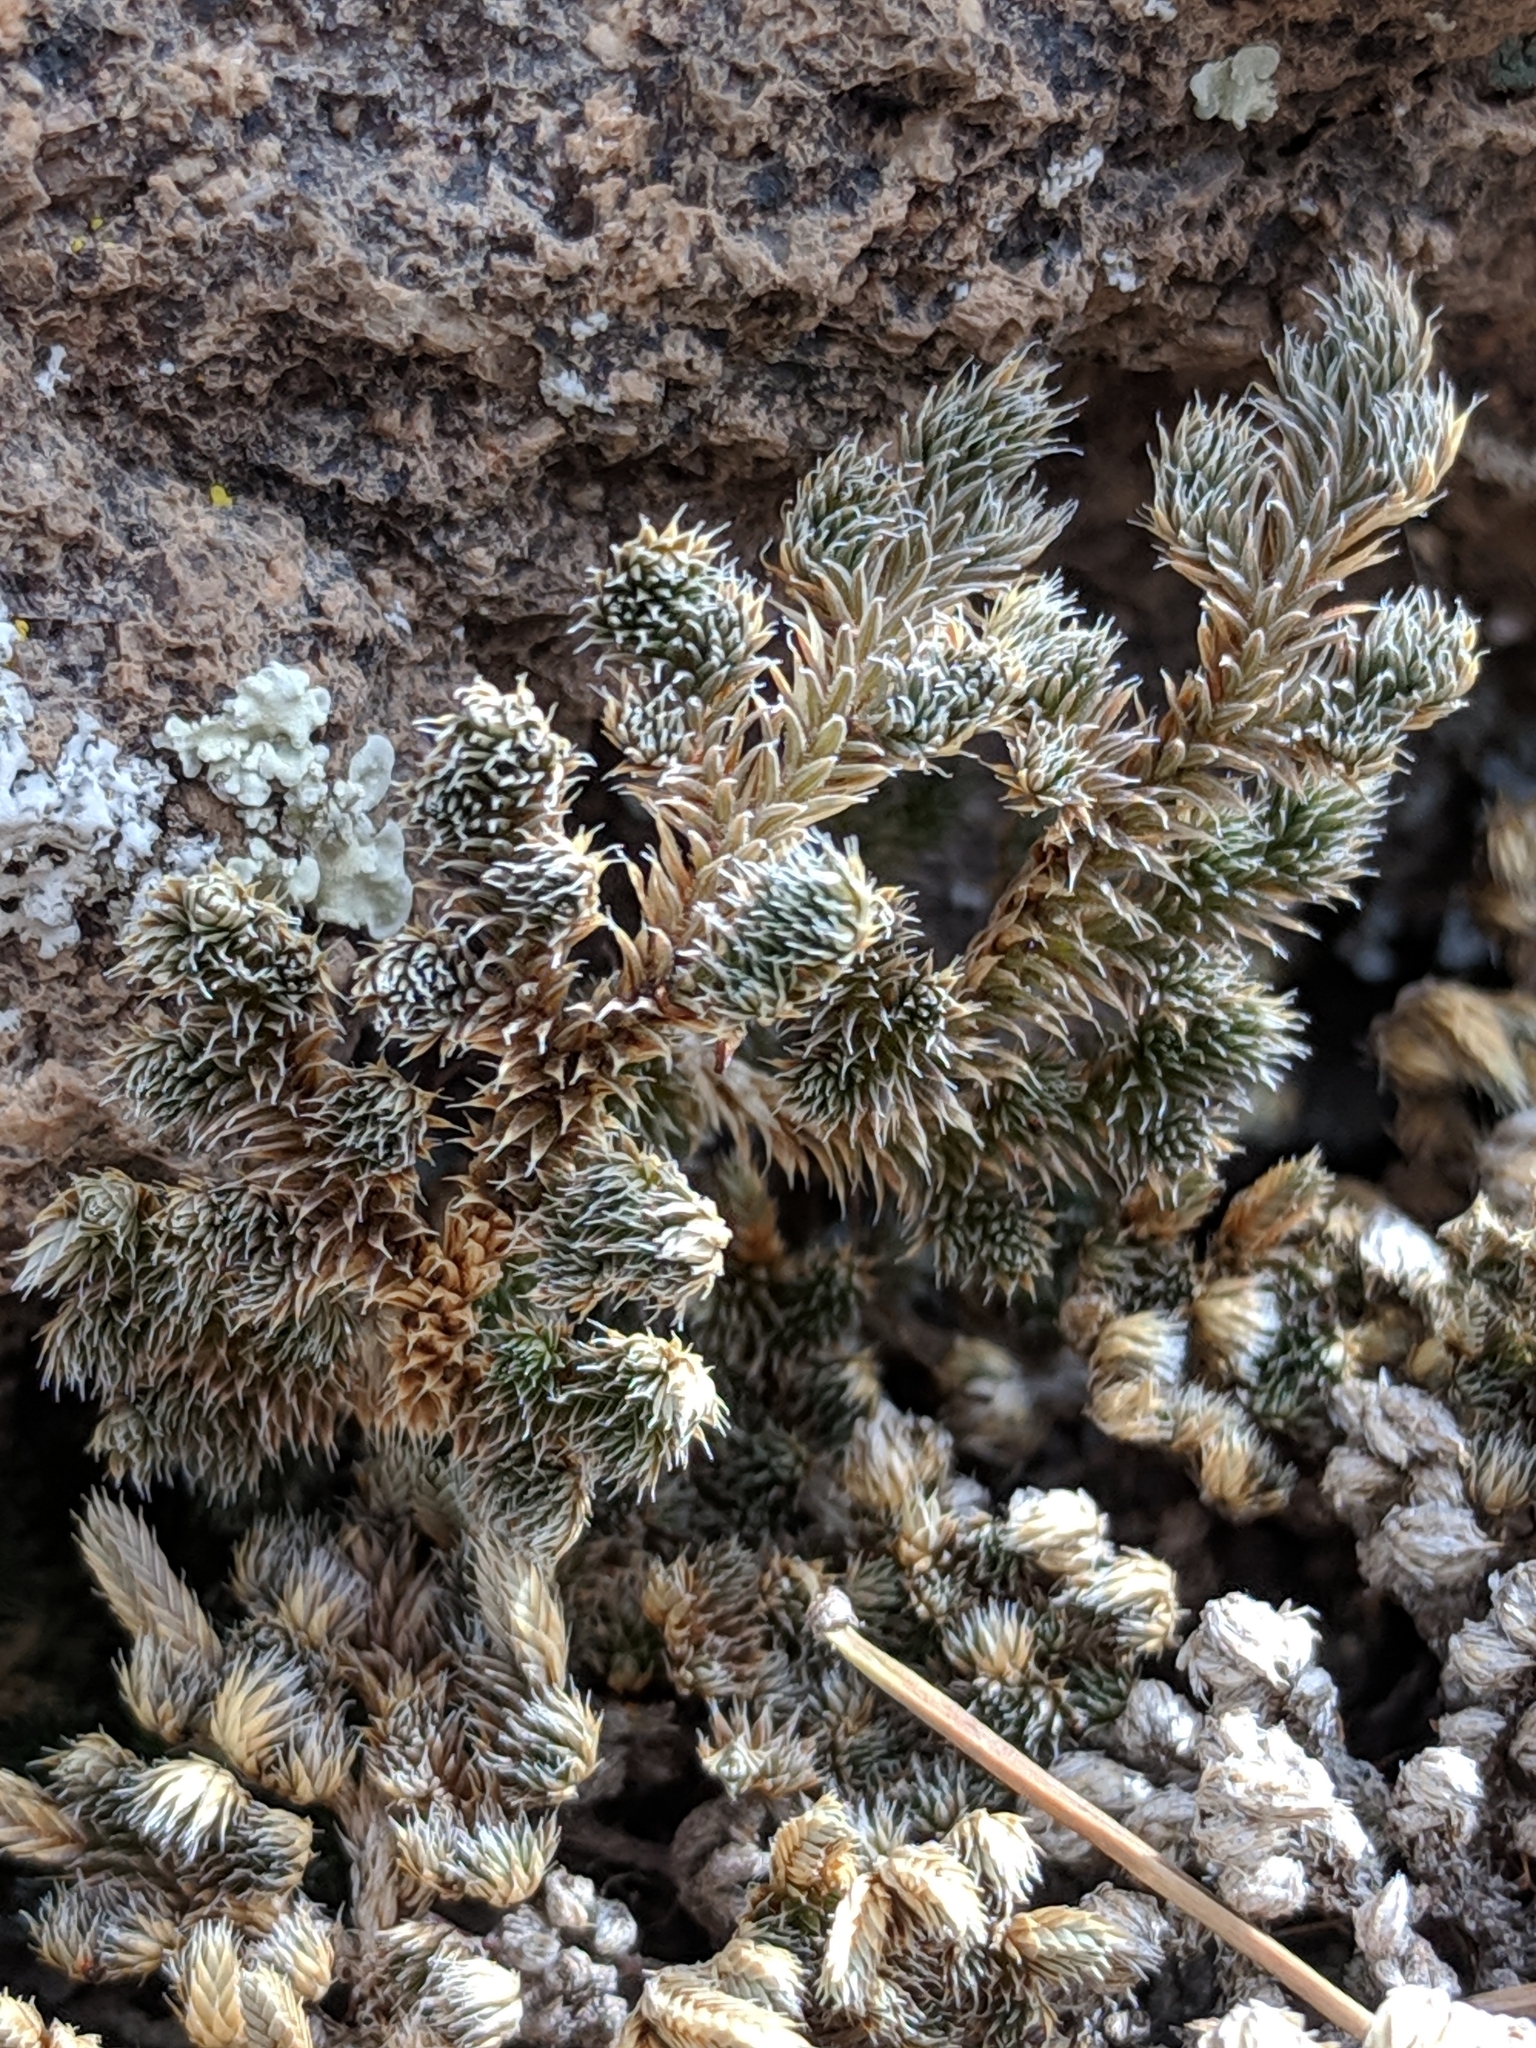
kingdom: Plantae
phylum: Tracheophyta
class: Lycopodiopsida
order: Selaginellales
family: Selaginellaceae
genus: Selaginella
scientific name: Selaginella peruviana
